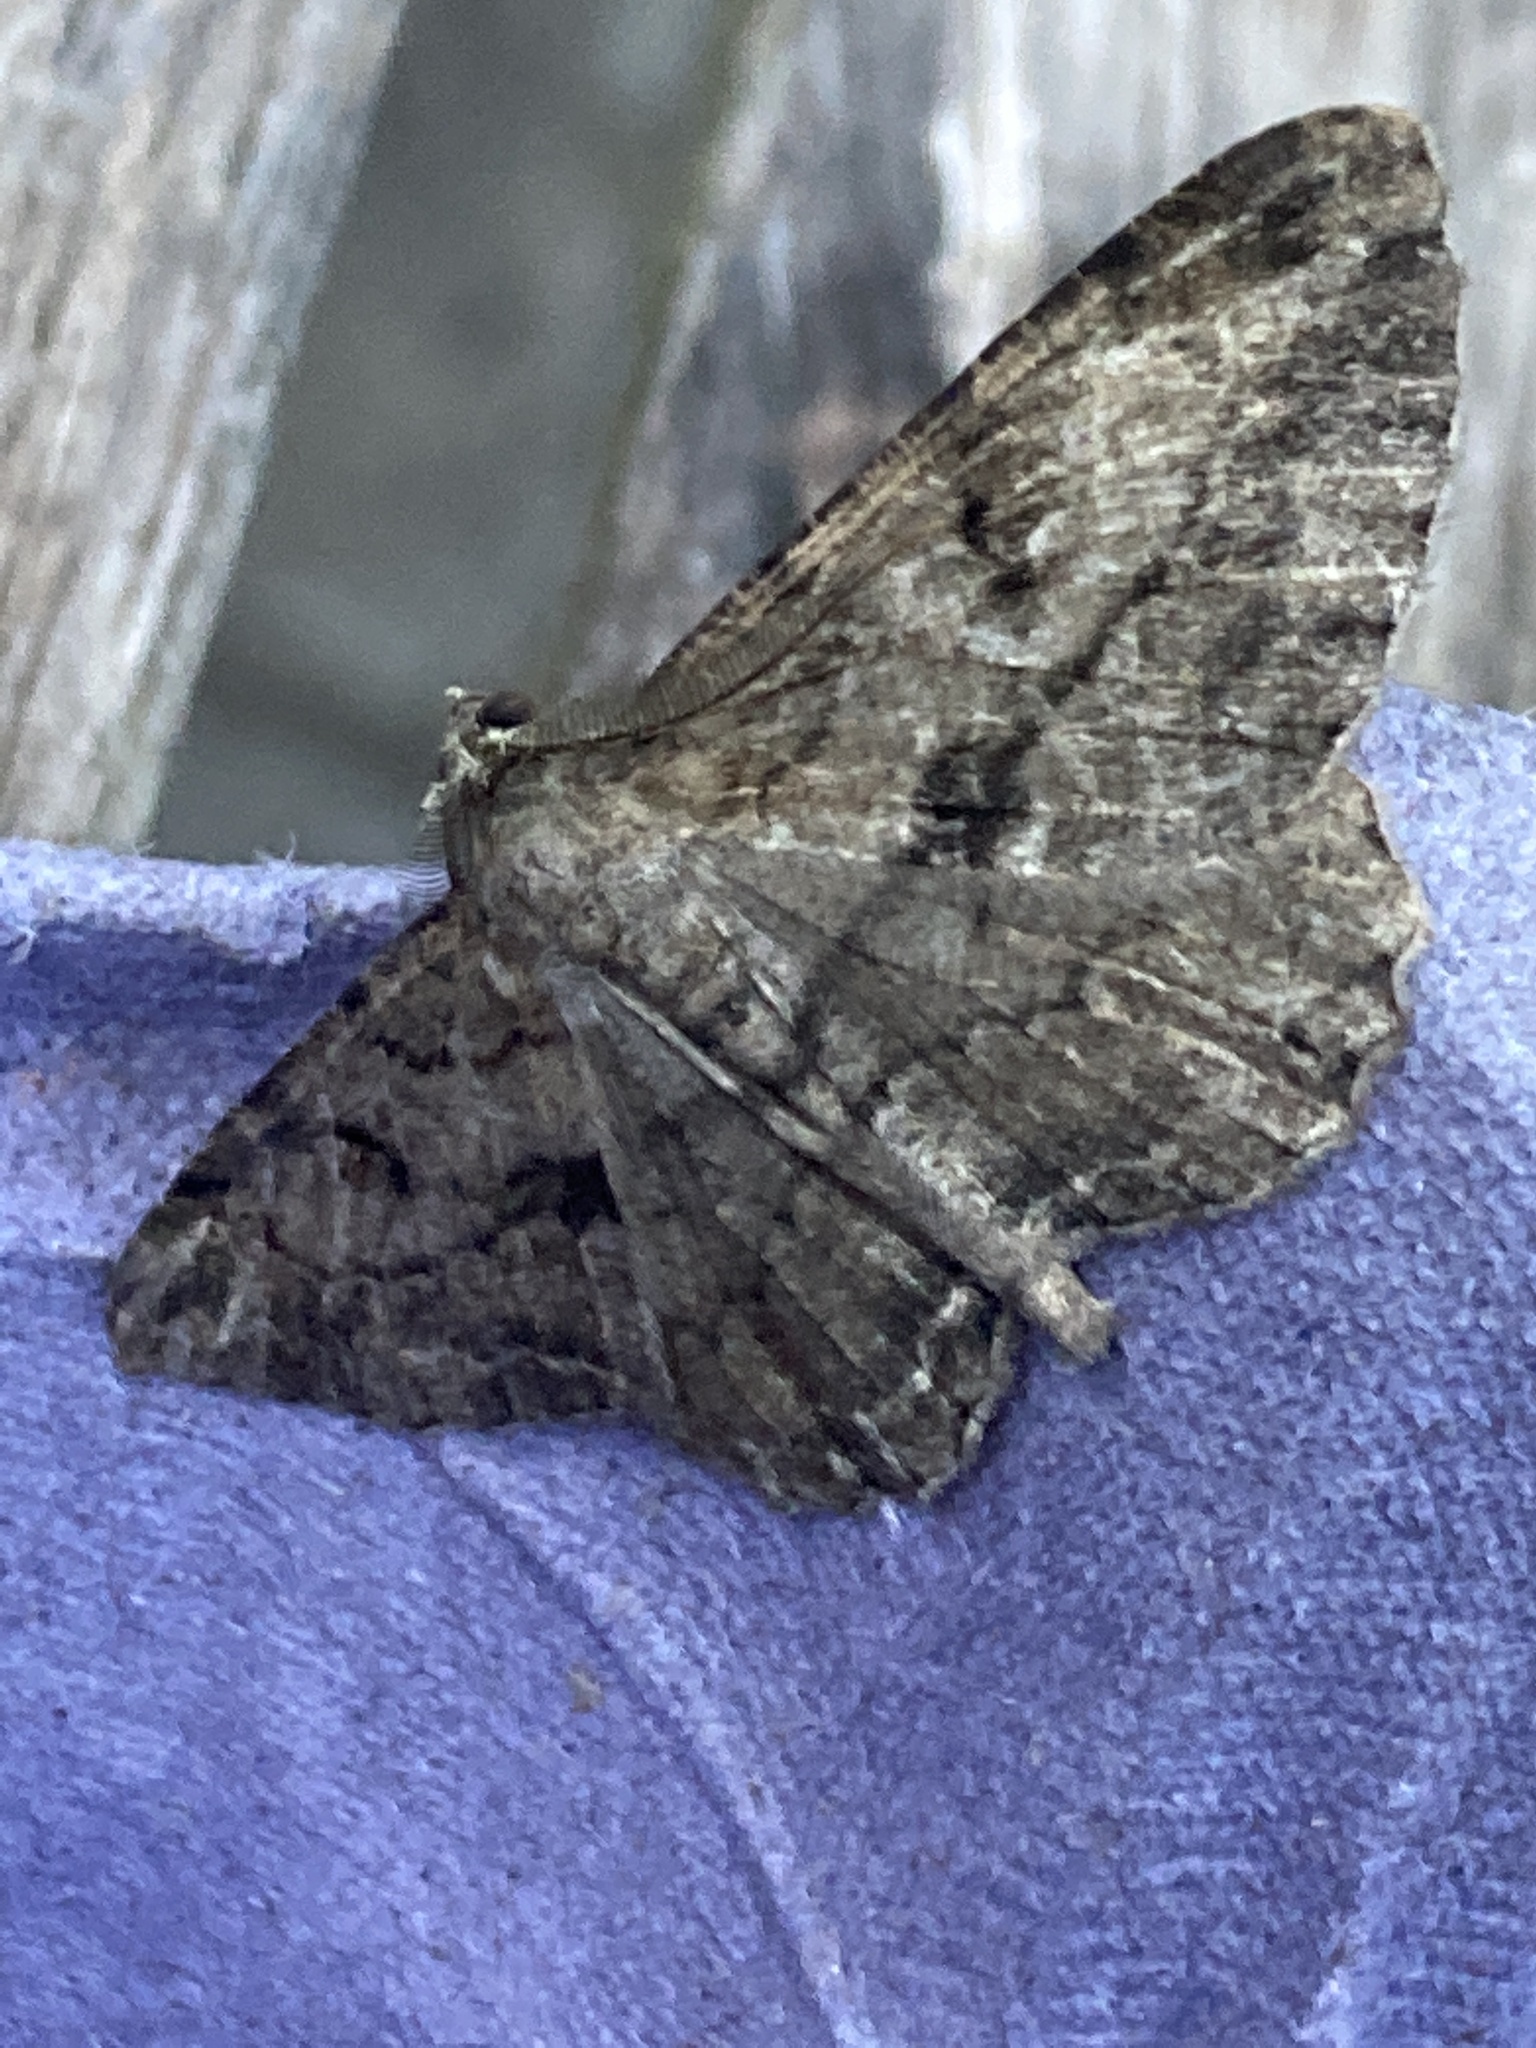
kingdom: Animalia
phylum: Arthropoda
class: Insecta
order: Lepidoptera
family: Geometridae
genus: Peribatodes
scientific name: Peribatodes rhomboidaria
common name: Willow beauty
